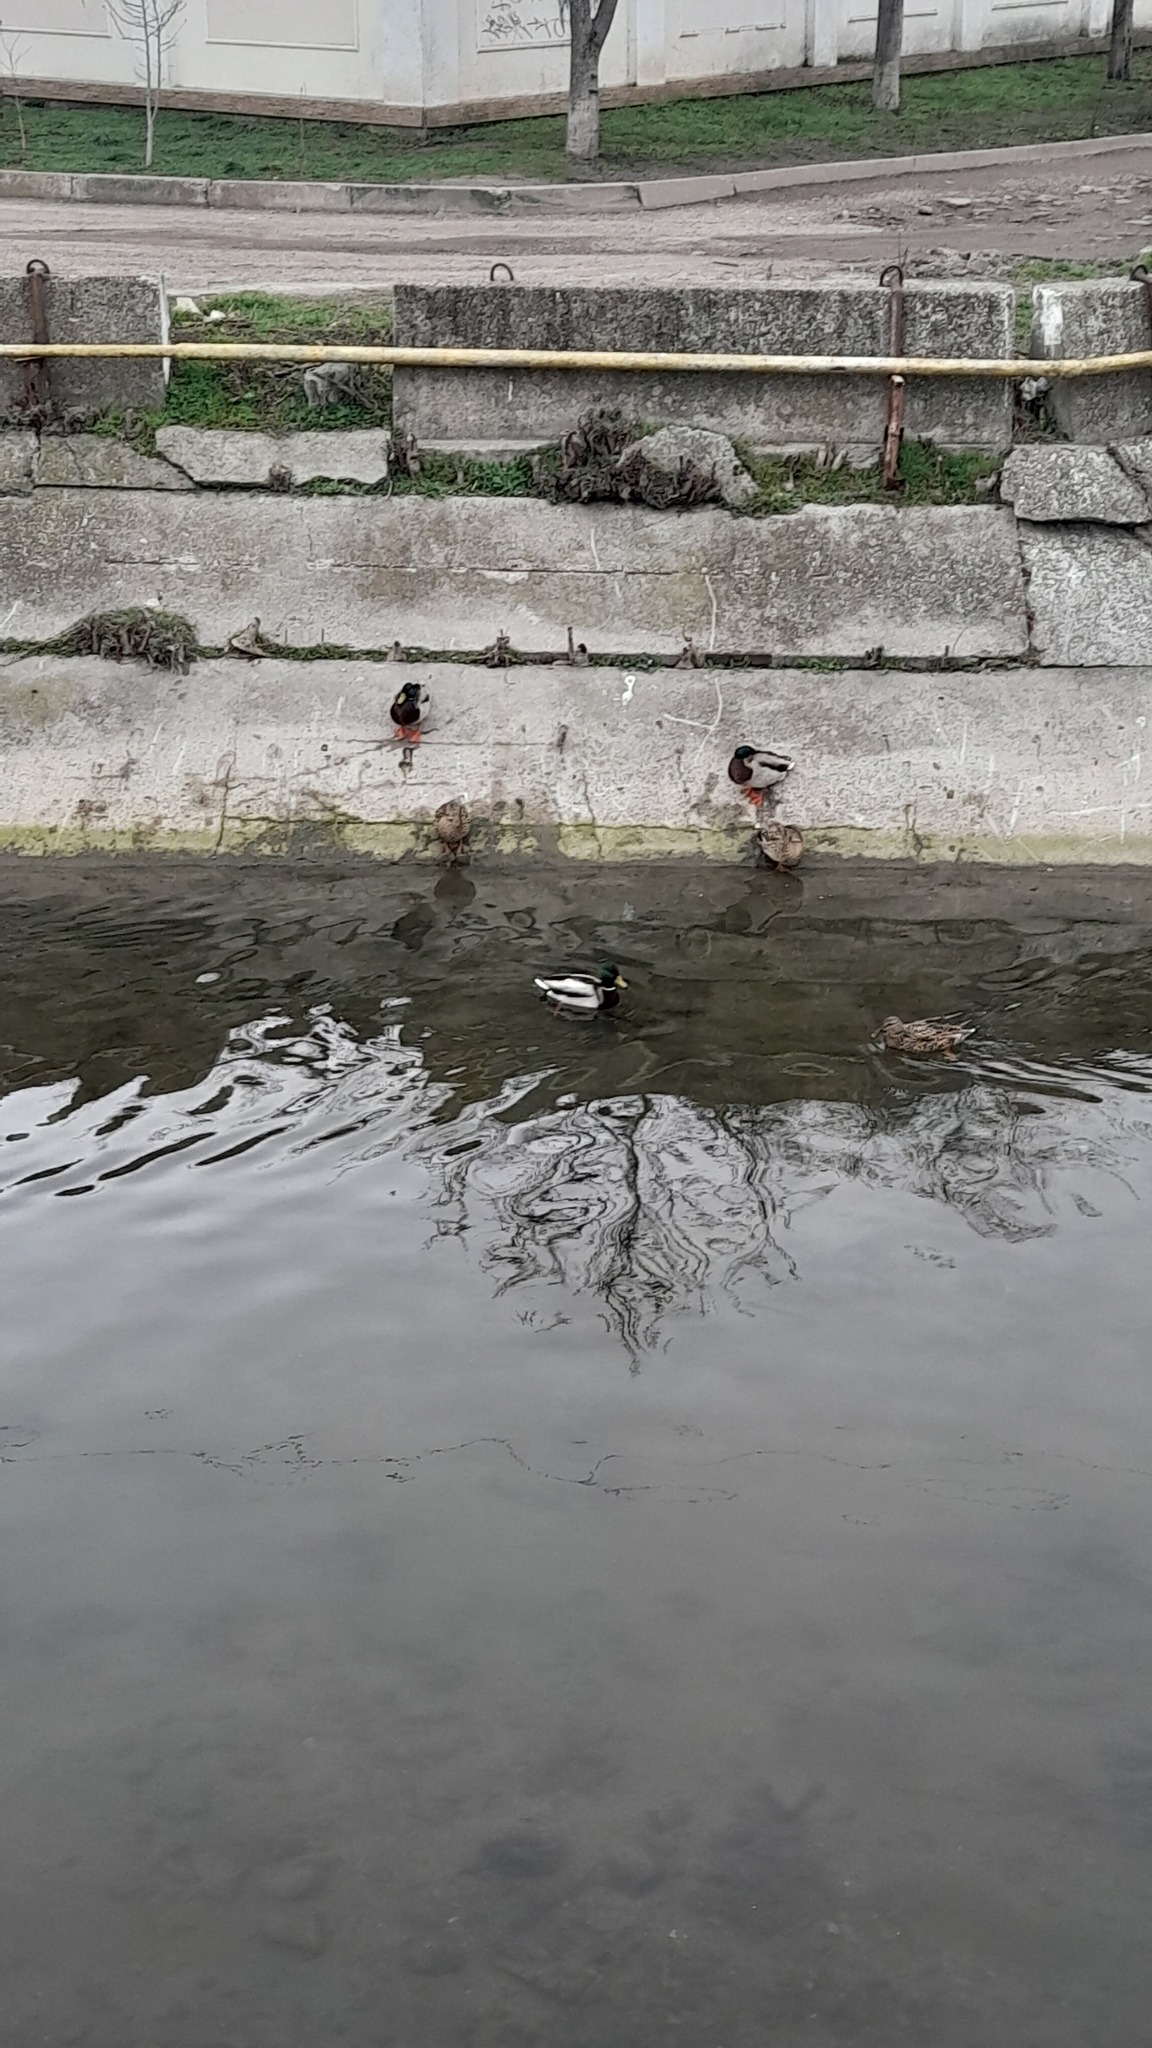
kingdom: Animalia
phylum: Chordata
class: Aves
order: Anseriformes
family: Anatidae
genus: Anas
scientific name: Anas platyrhynchos
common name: Mallard
